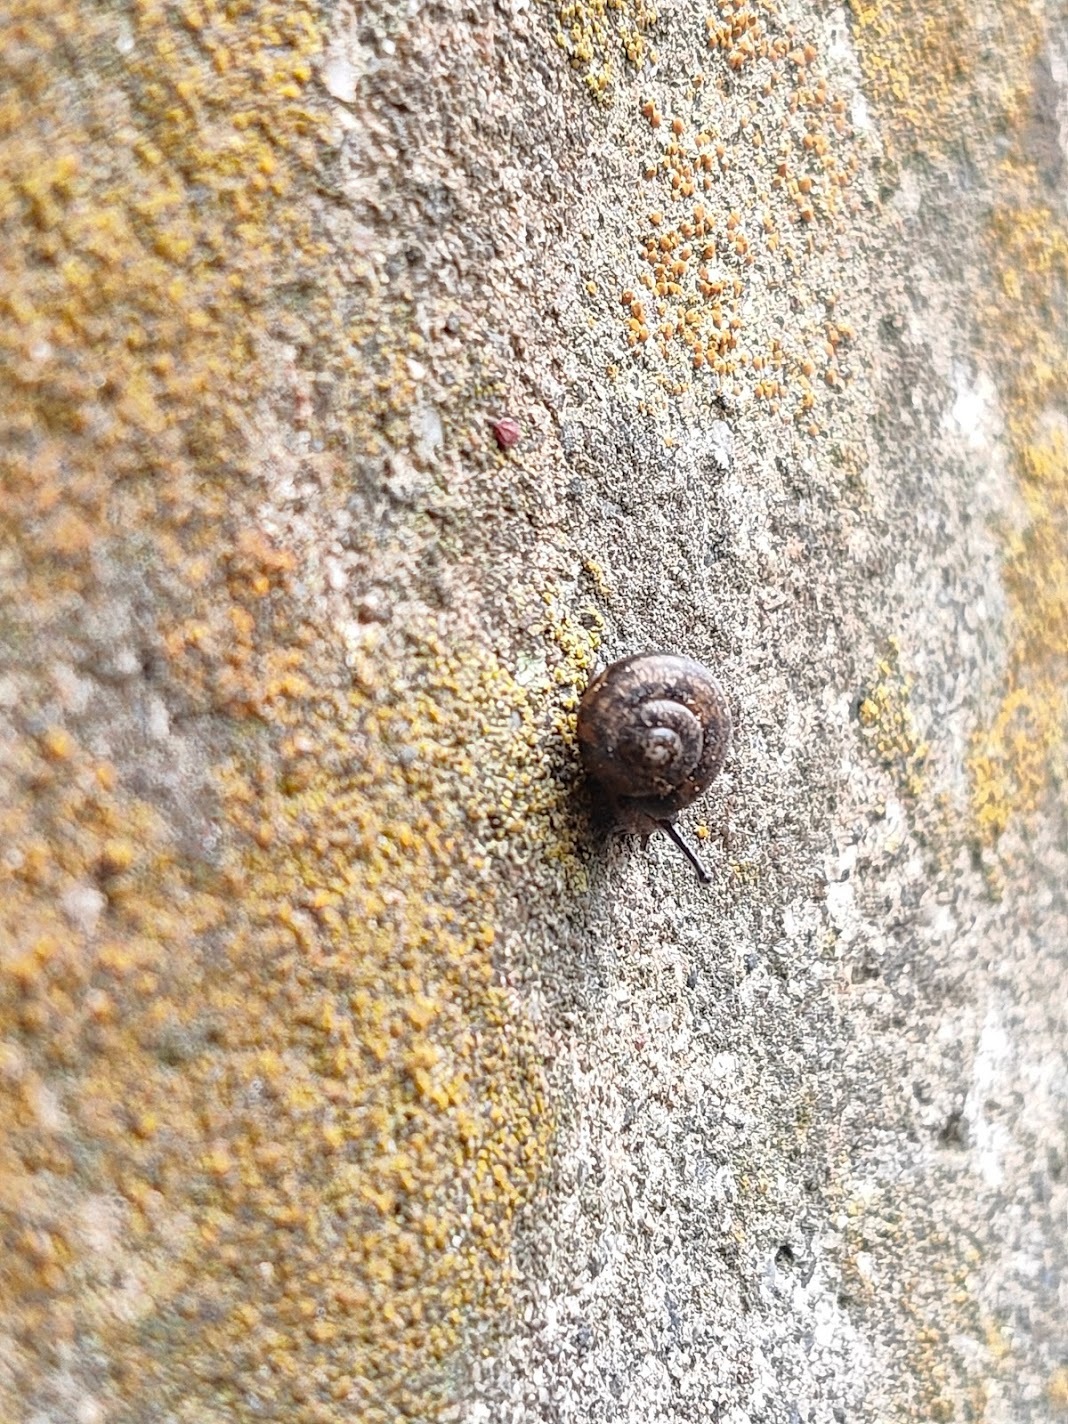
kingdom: Animalia
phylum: Mollusca
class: Gastropoda
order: Stylommatophora
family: Camaenidae
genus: Acusta
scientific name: Acusta sieboldtiana
